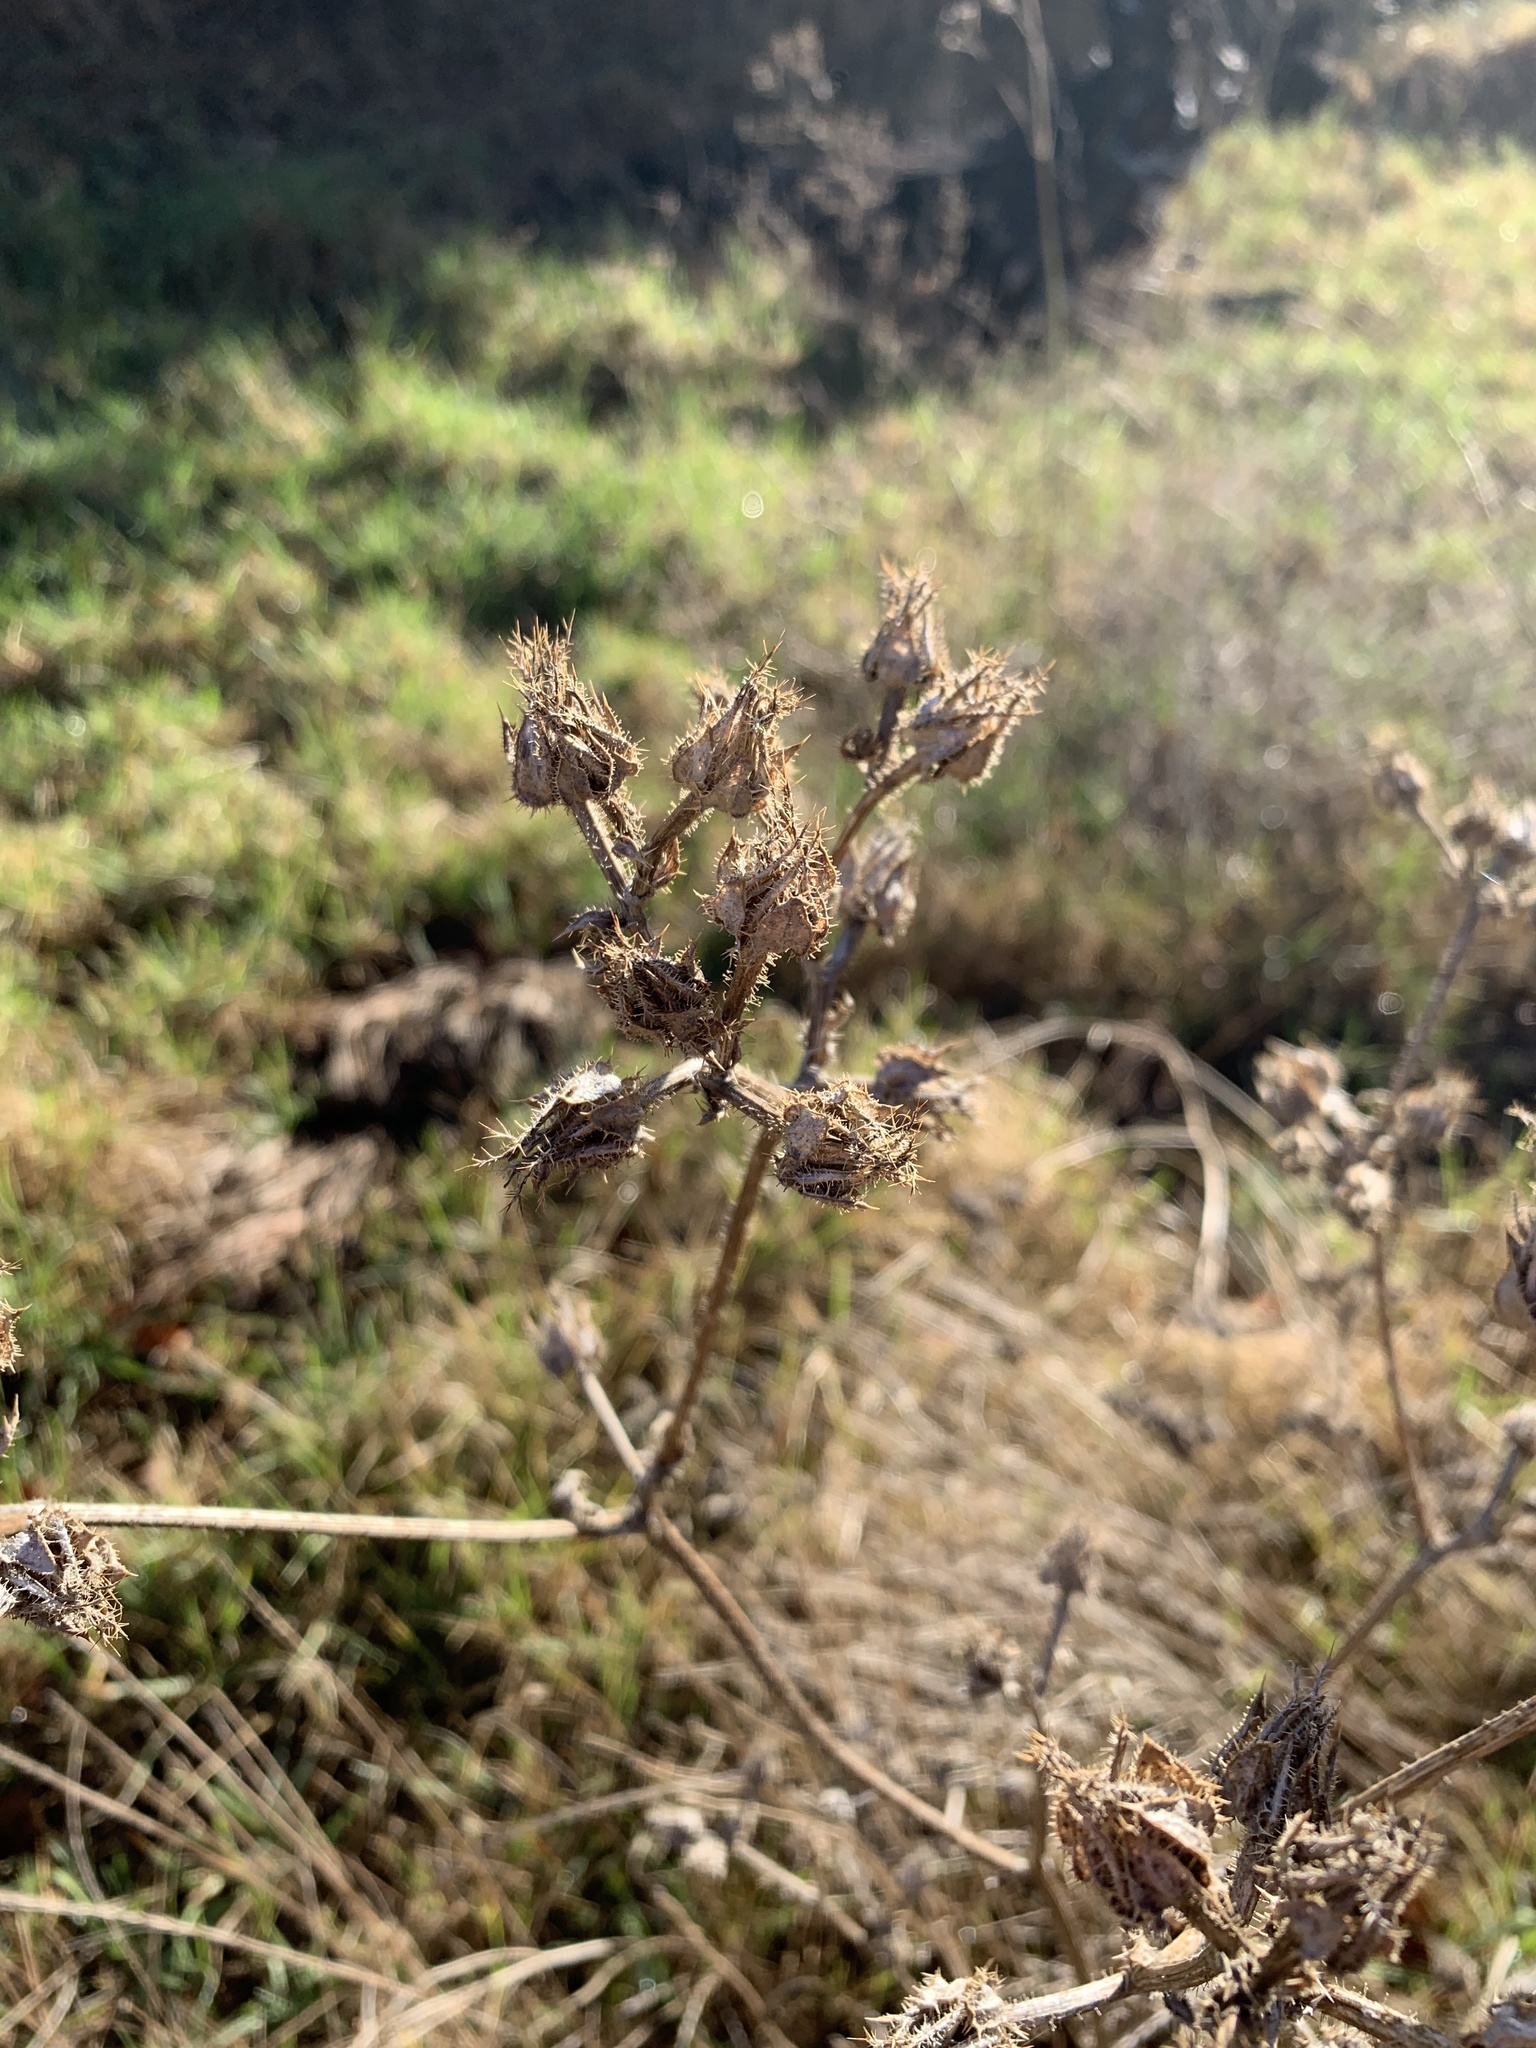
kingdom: Plantae
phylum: Tracheophyta
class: Magnoliopsida
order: Asterales
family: Asteraceae
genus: Helminthotheca
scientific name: Helminthotheca echioides
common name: Ox-tongue
